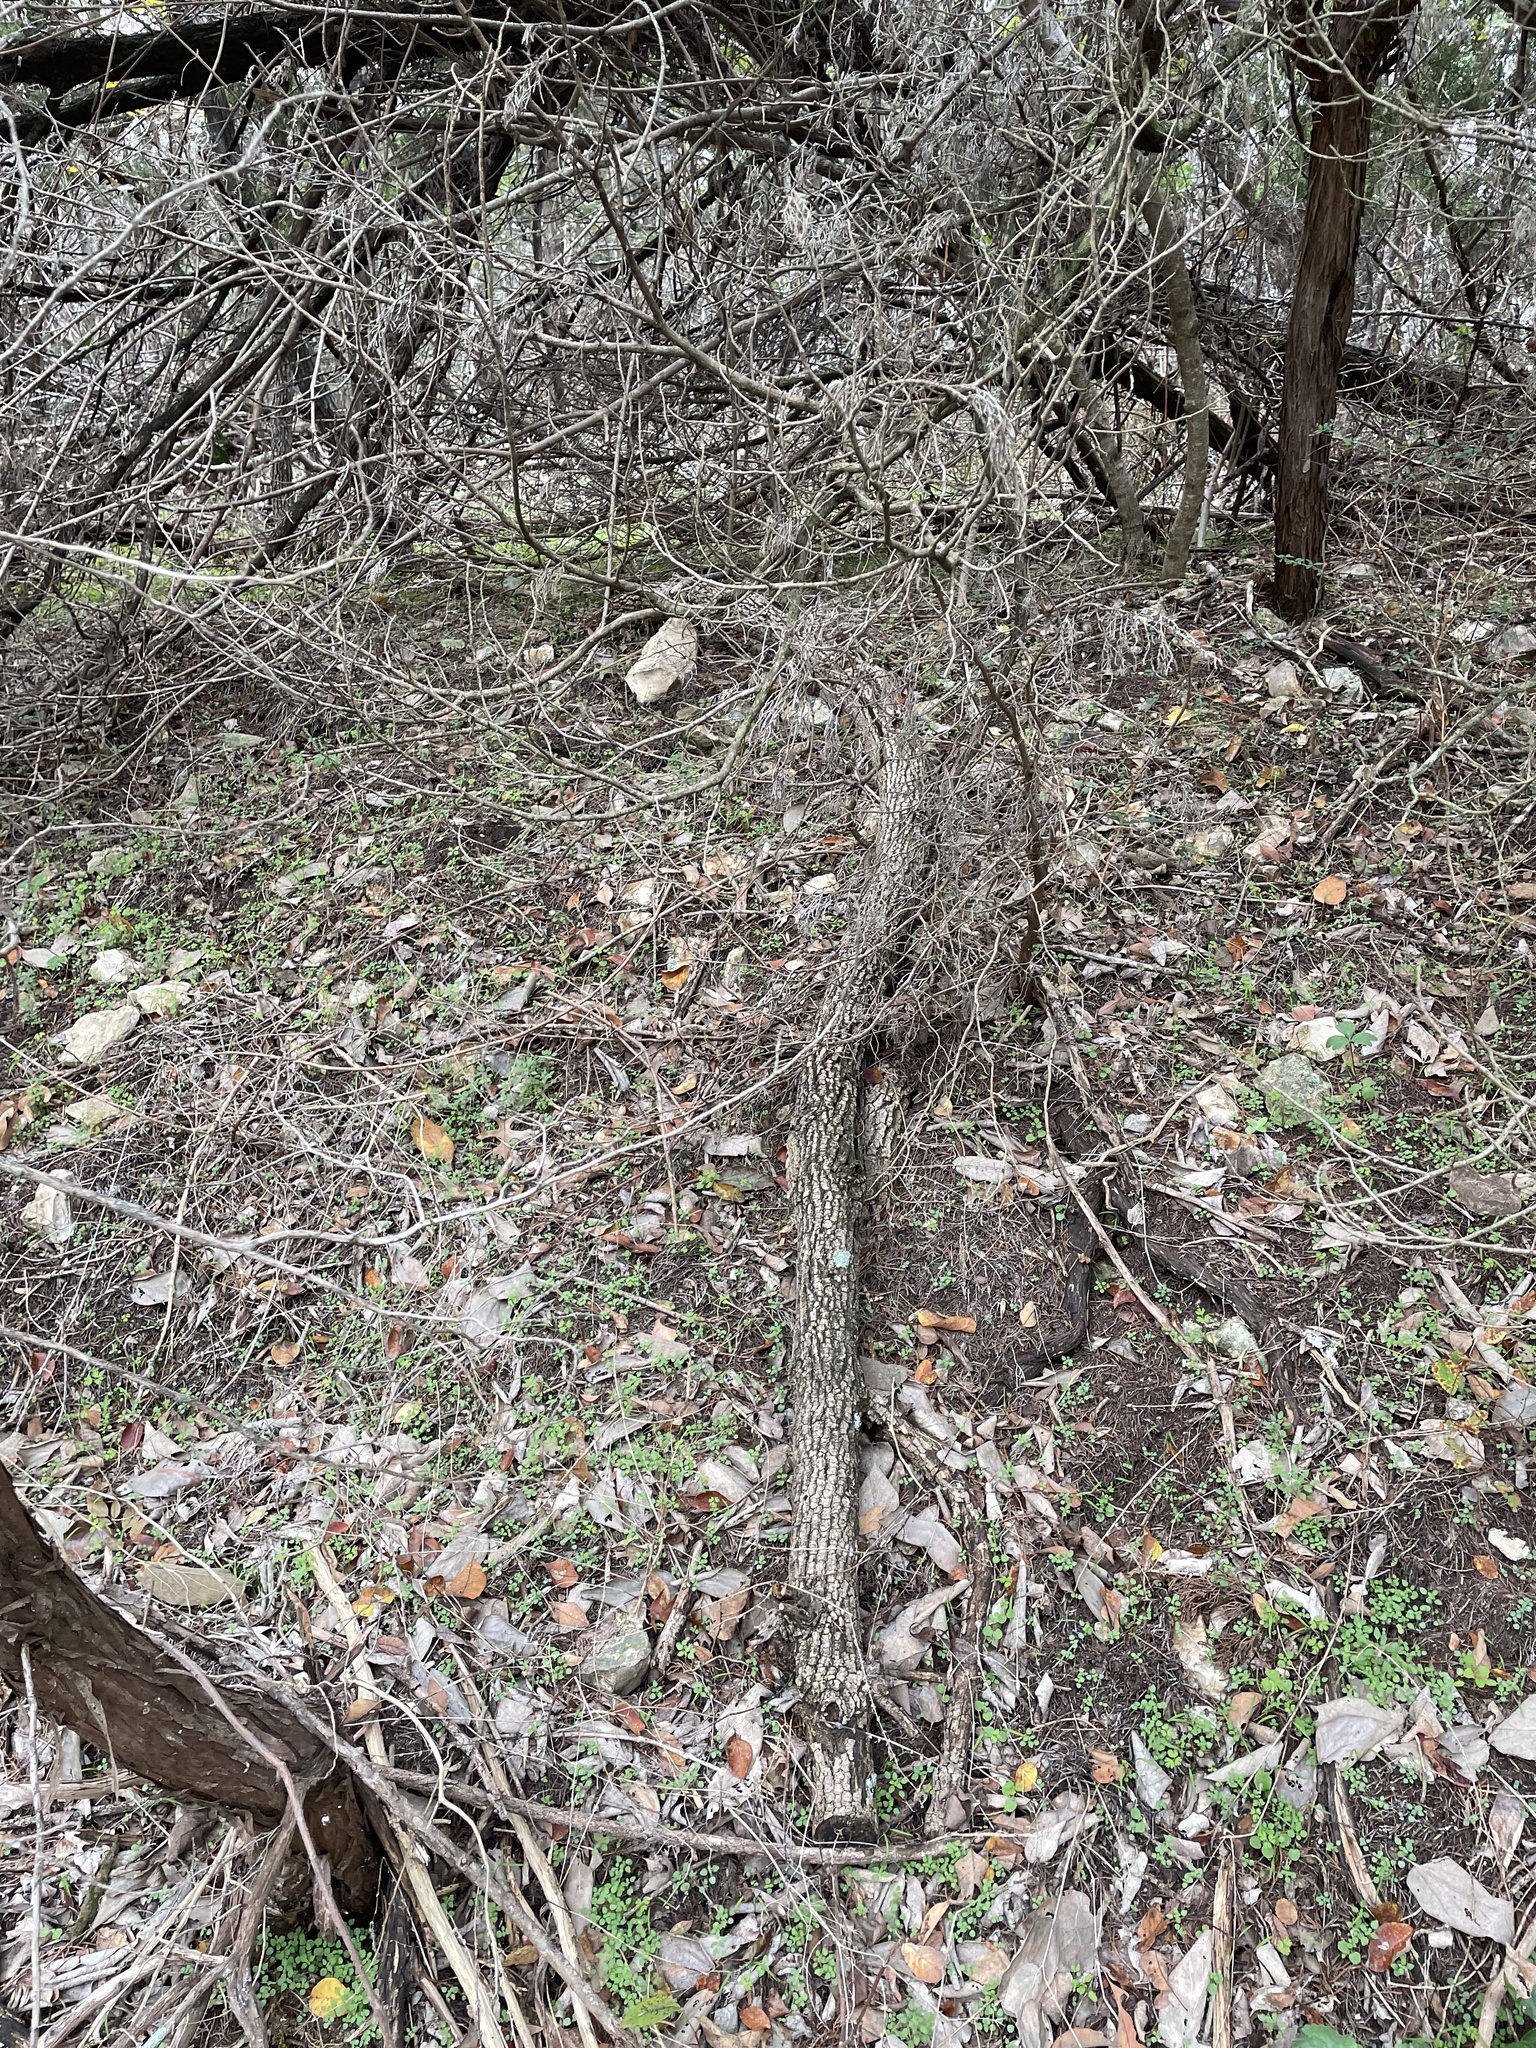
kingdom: Plantae
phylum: Tracheophyta
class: Magnoliopsida
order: Lamiales
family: Oleaceae
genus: Fraxinus
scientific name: Fraxinus albicans
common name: Texas ash
